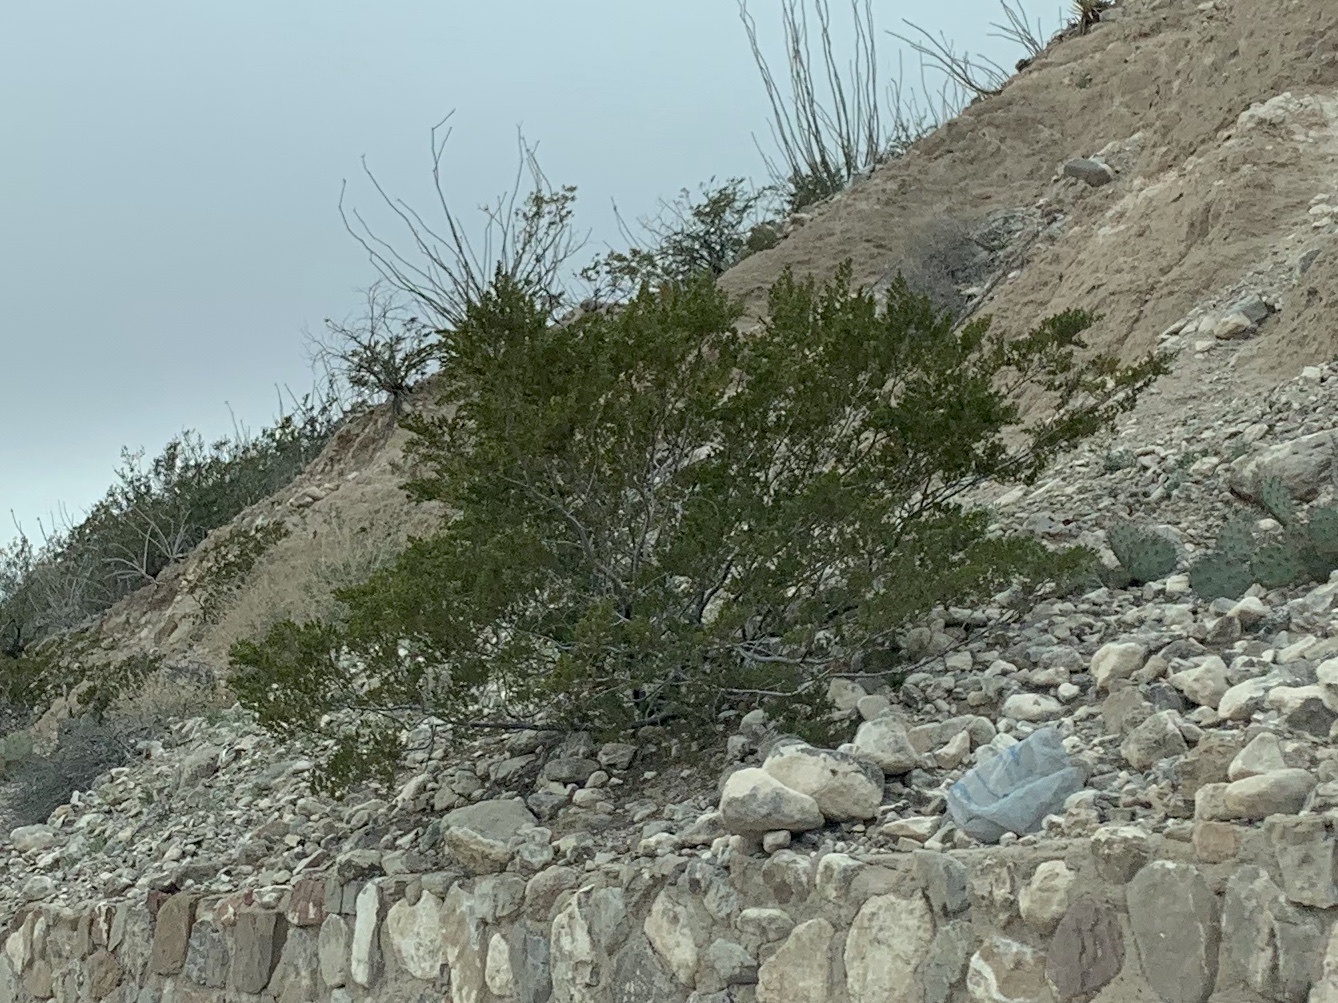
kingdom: Plantae
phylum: Tracheophyta
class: Magnoliopsida
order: Zygophyllales
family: Zygophyllaceae
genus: Larrea
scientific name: Larrea tridentata
